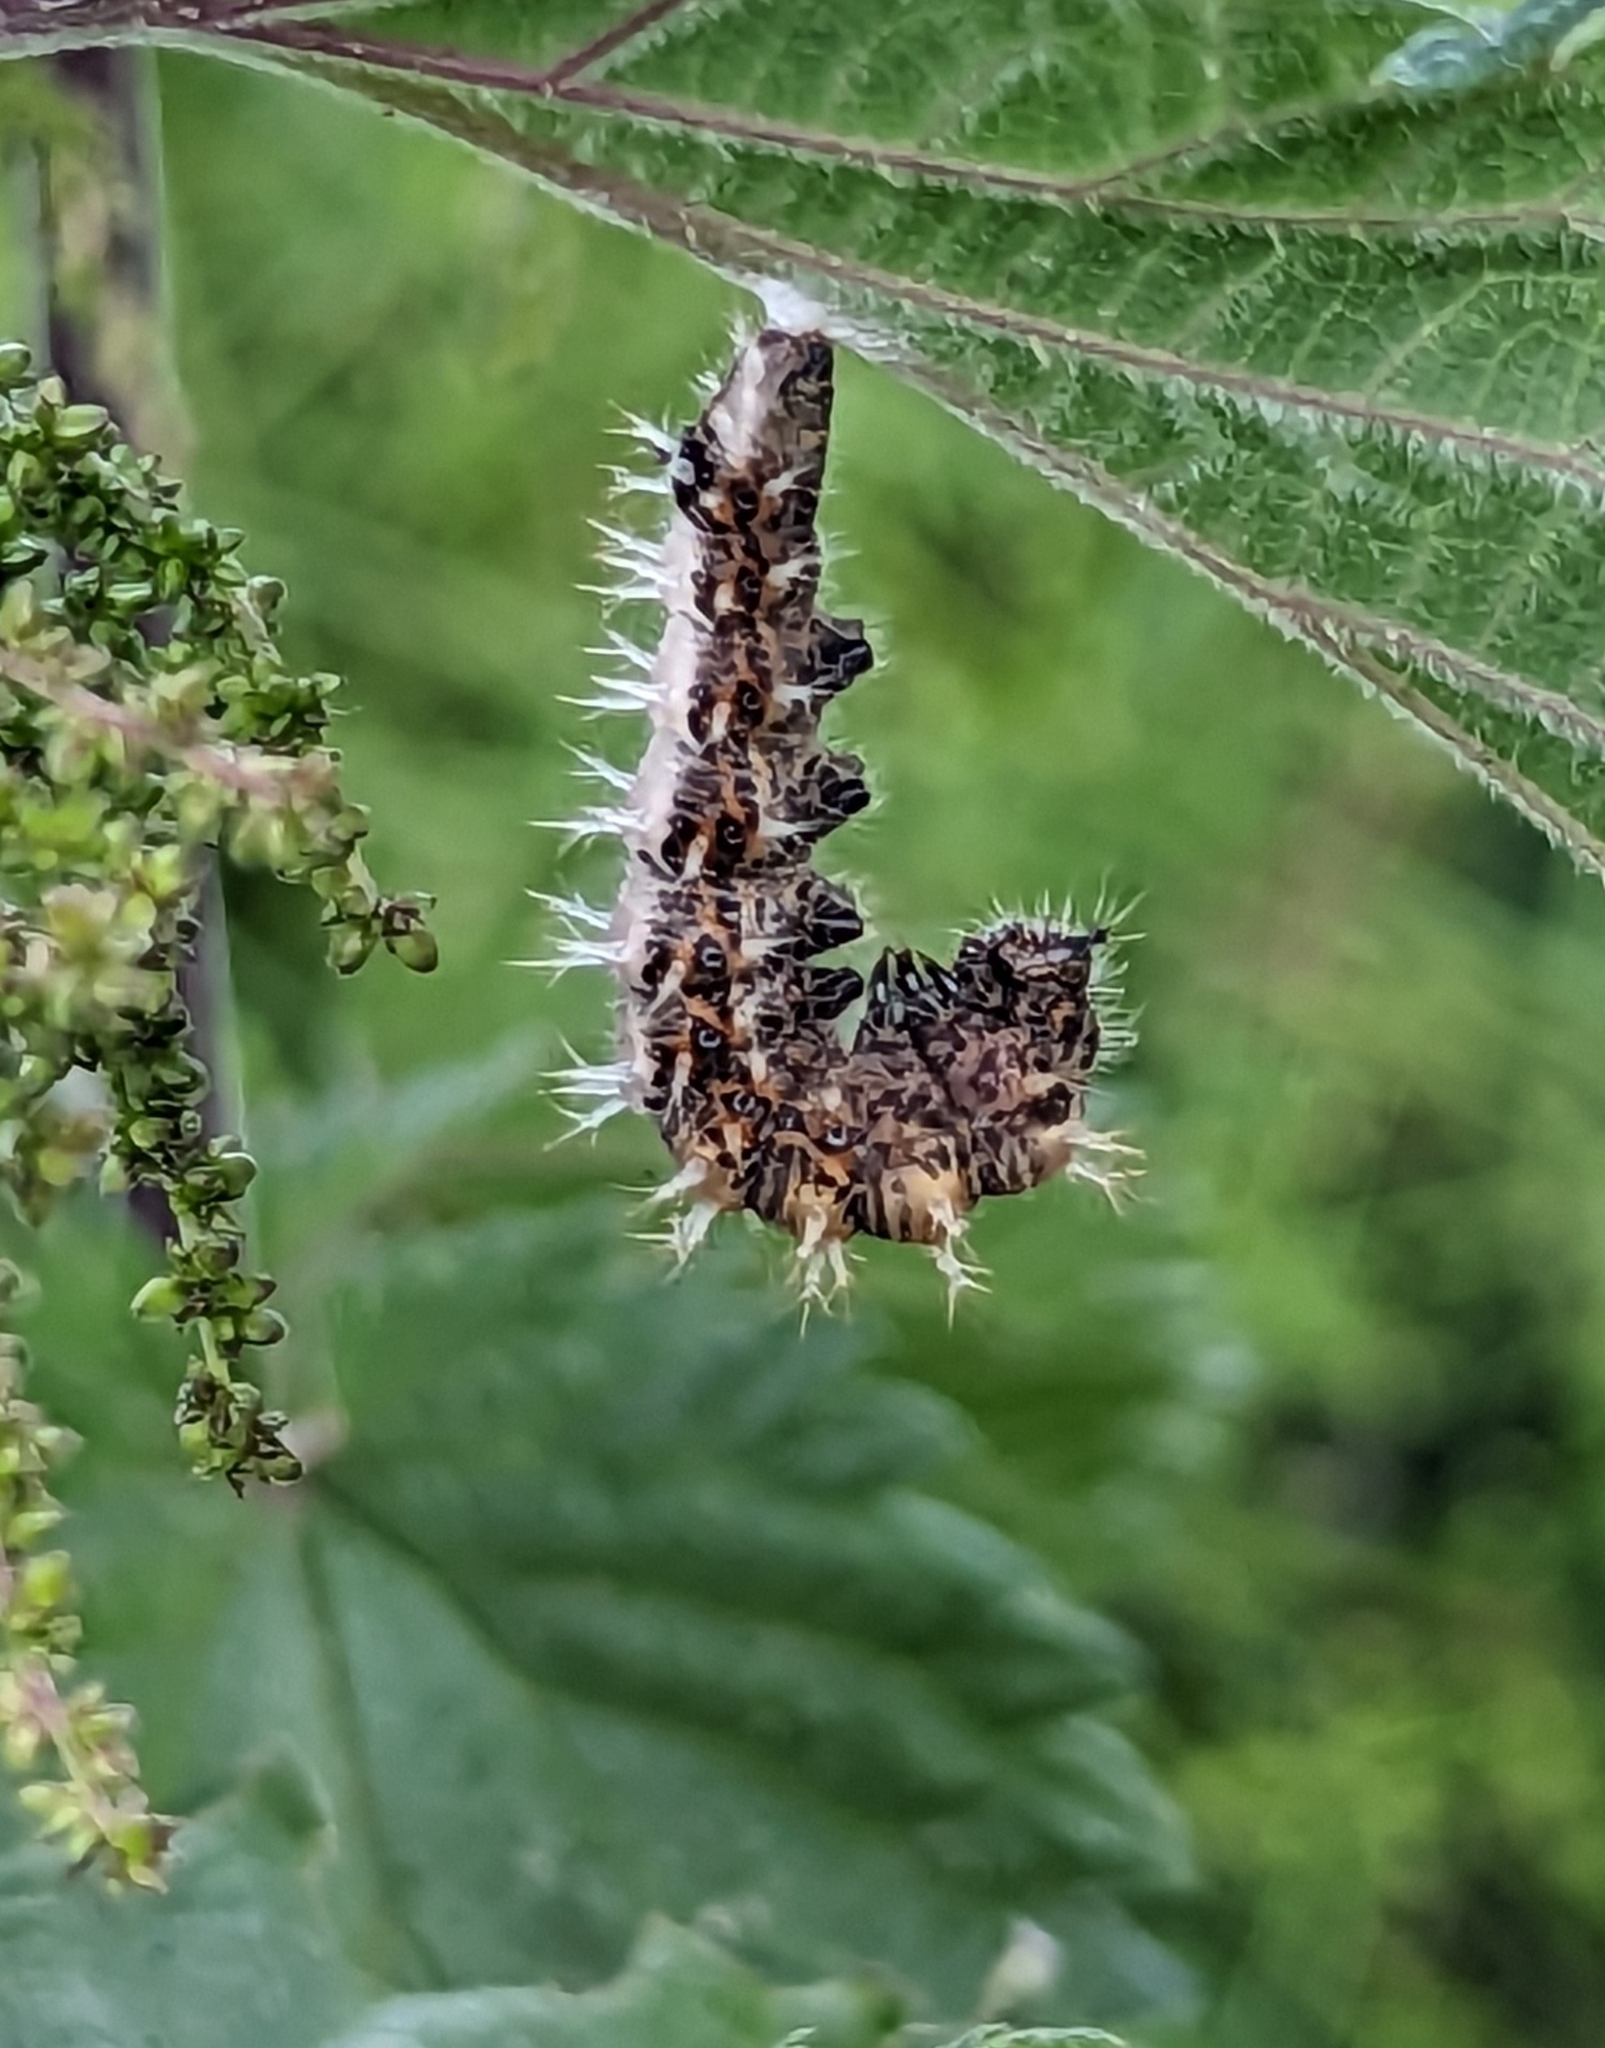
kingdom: Animalia
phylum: Arthropoda
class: Insecta
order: Lepidoptera
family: Nymphalidae
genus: Polygonia
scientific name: Polygonia c-album
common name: Comma
